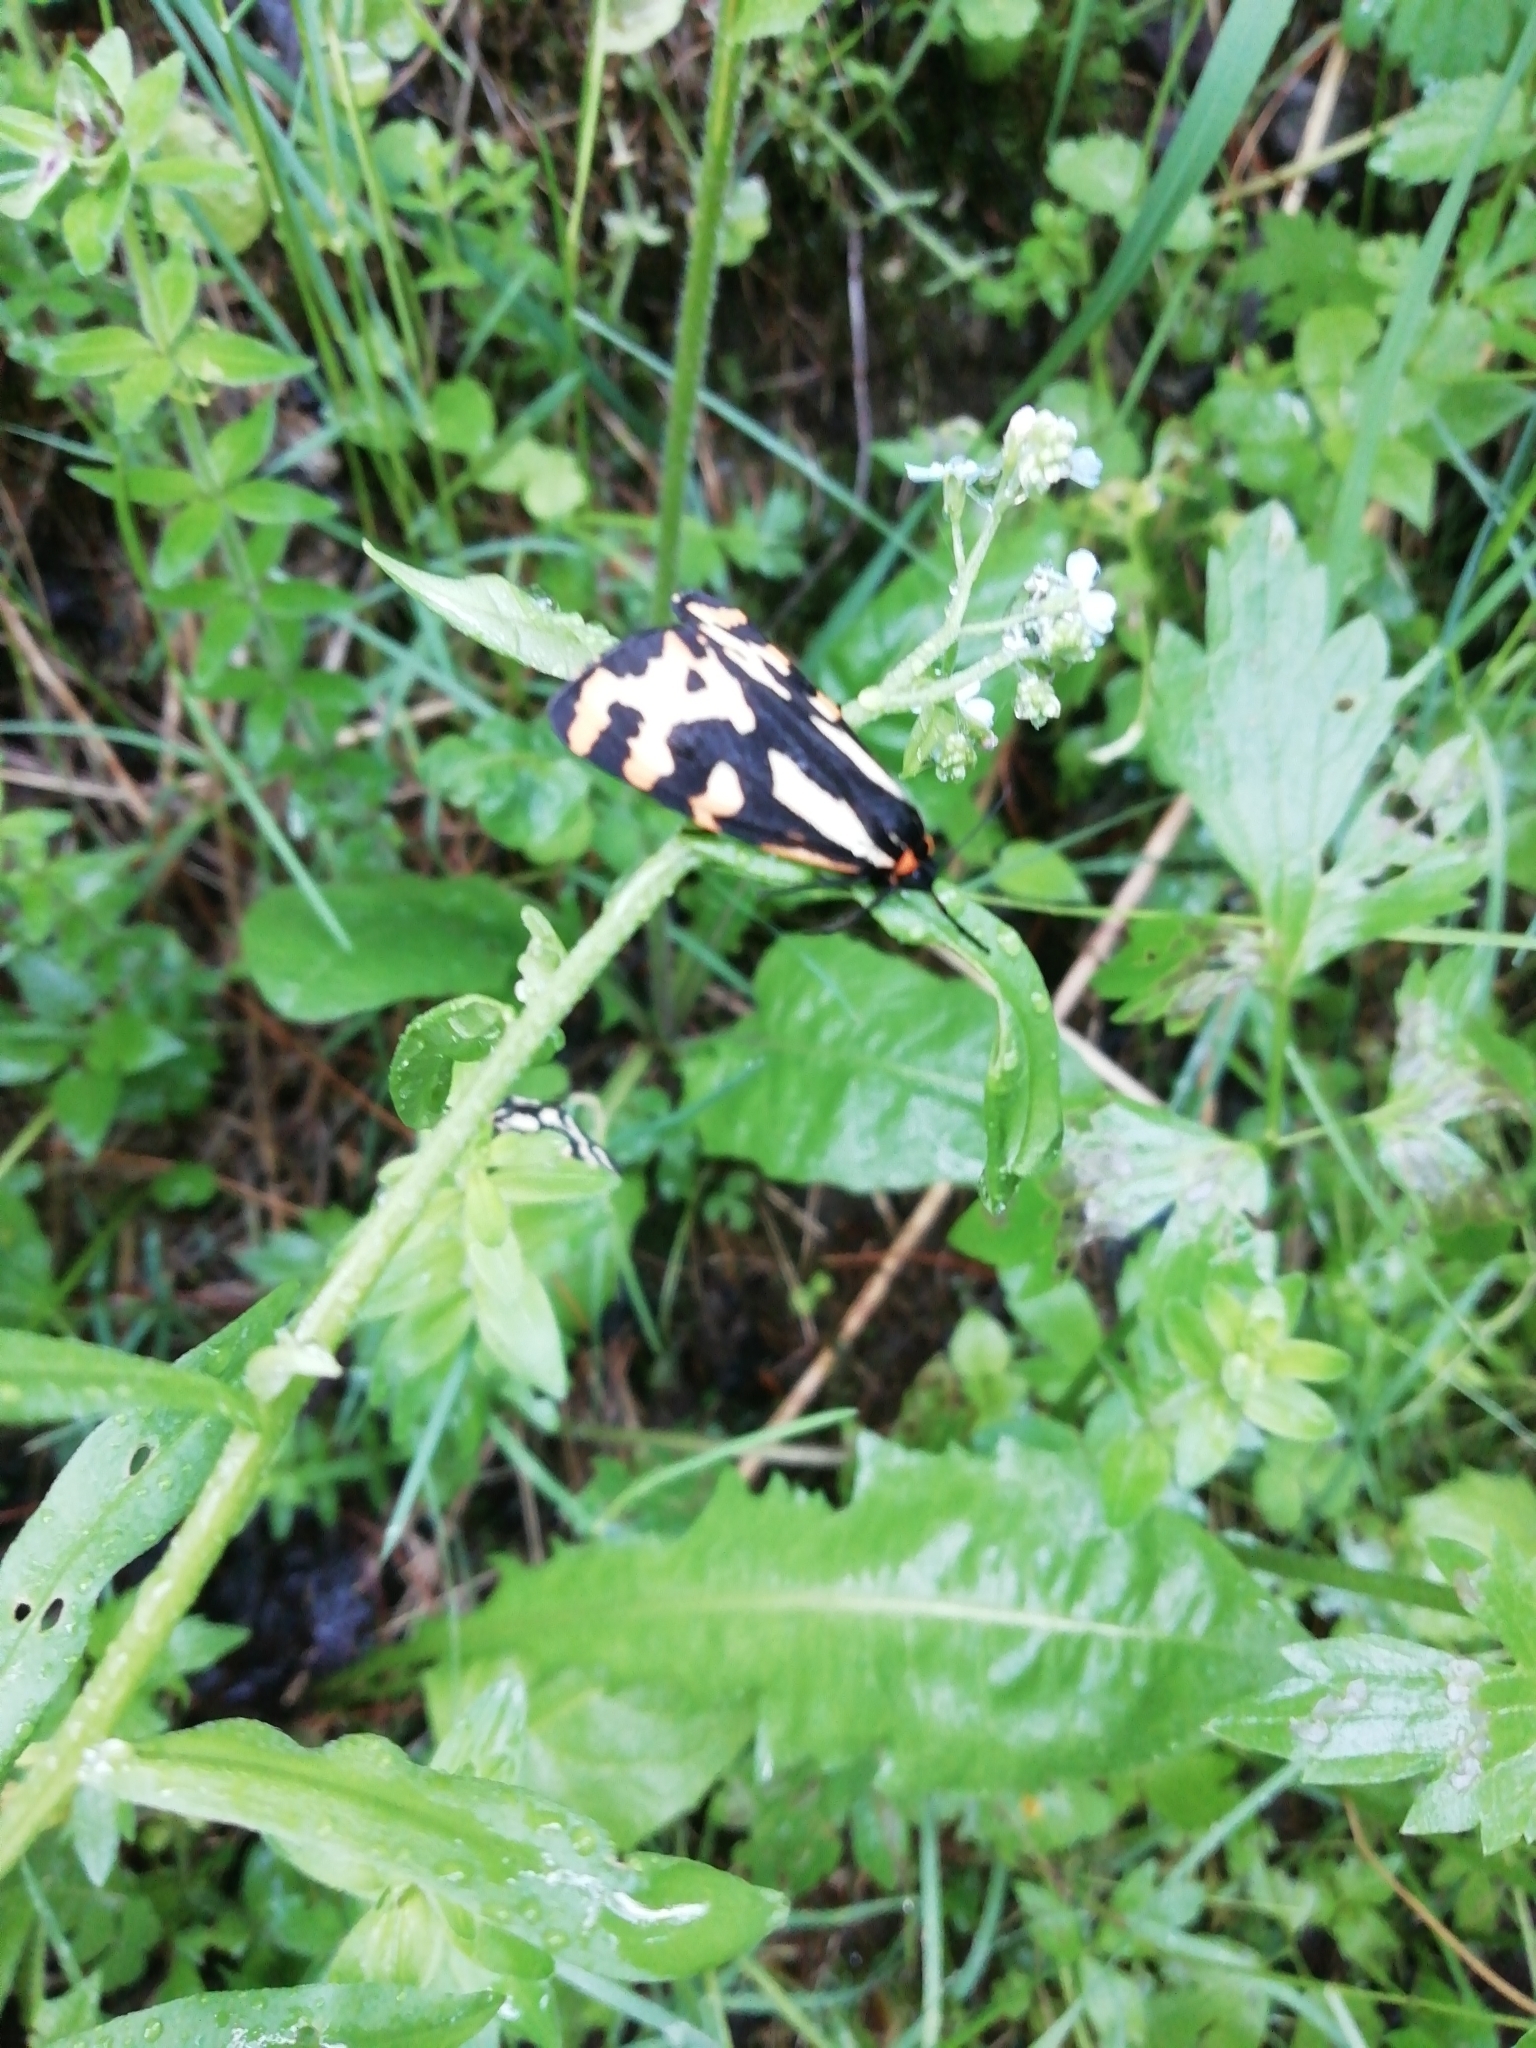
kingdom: Animalia
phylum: Arthropoda
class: Insecta
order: Lepidoptera
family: Erebidae
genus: Parasemia
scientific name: Parasemia plantaginis
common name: Wood tiger
